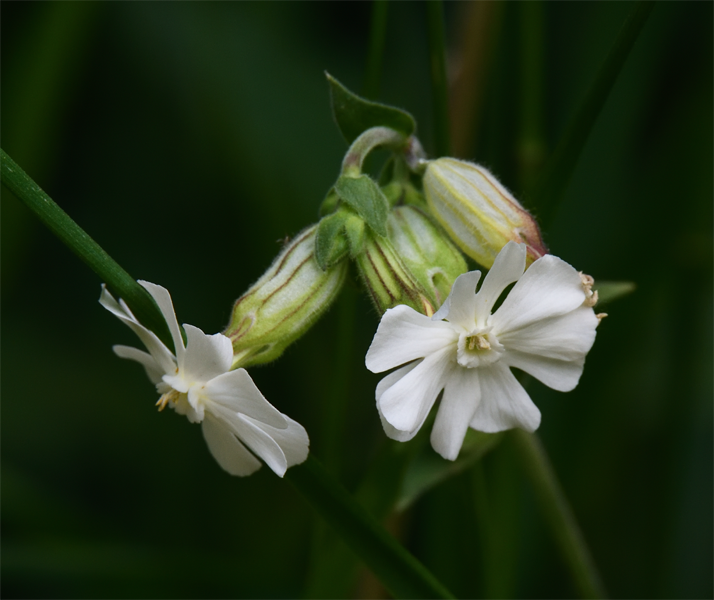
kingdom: Plantae
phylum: Tracheophyta
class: Magnoliopsida
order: Caryophyllales
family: Caryophyllaceae
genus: Silene
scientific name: Silene latifolia
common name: White campion
